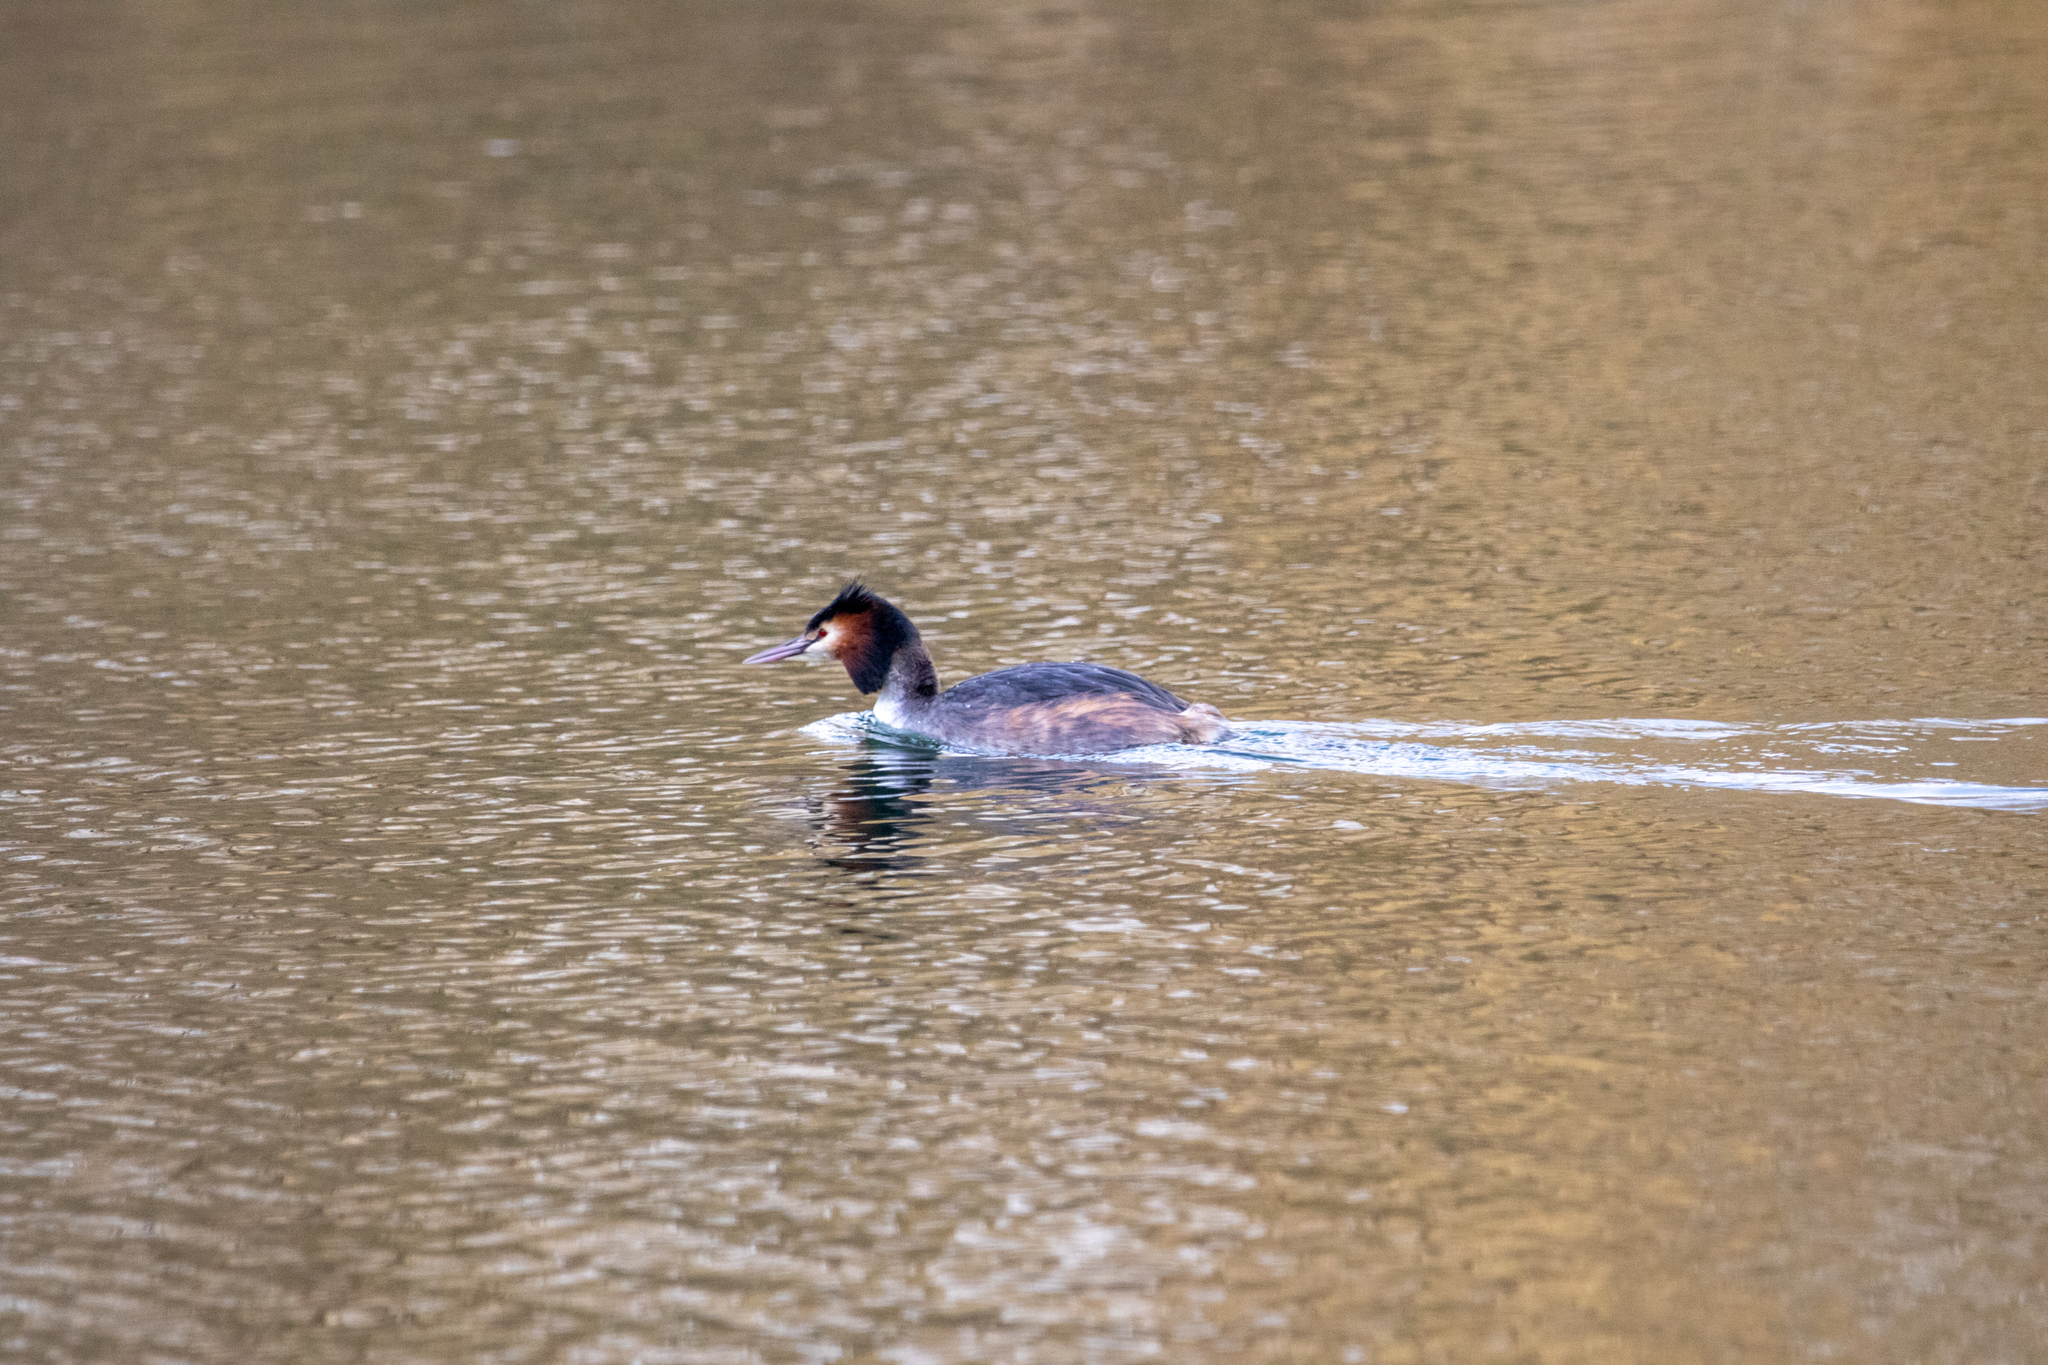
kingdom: Animalia
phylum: Chordata
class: Aves
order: Podicipediformes
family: Podicipedidae
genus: Podiceps
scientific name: Podiceps cristatus
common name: Great crested grebe
